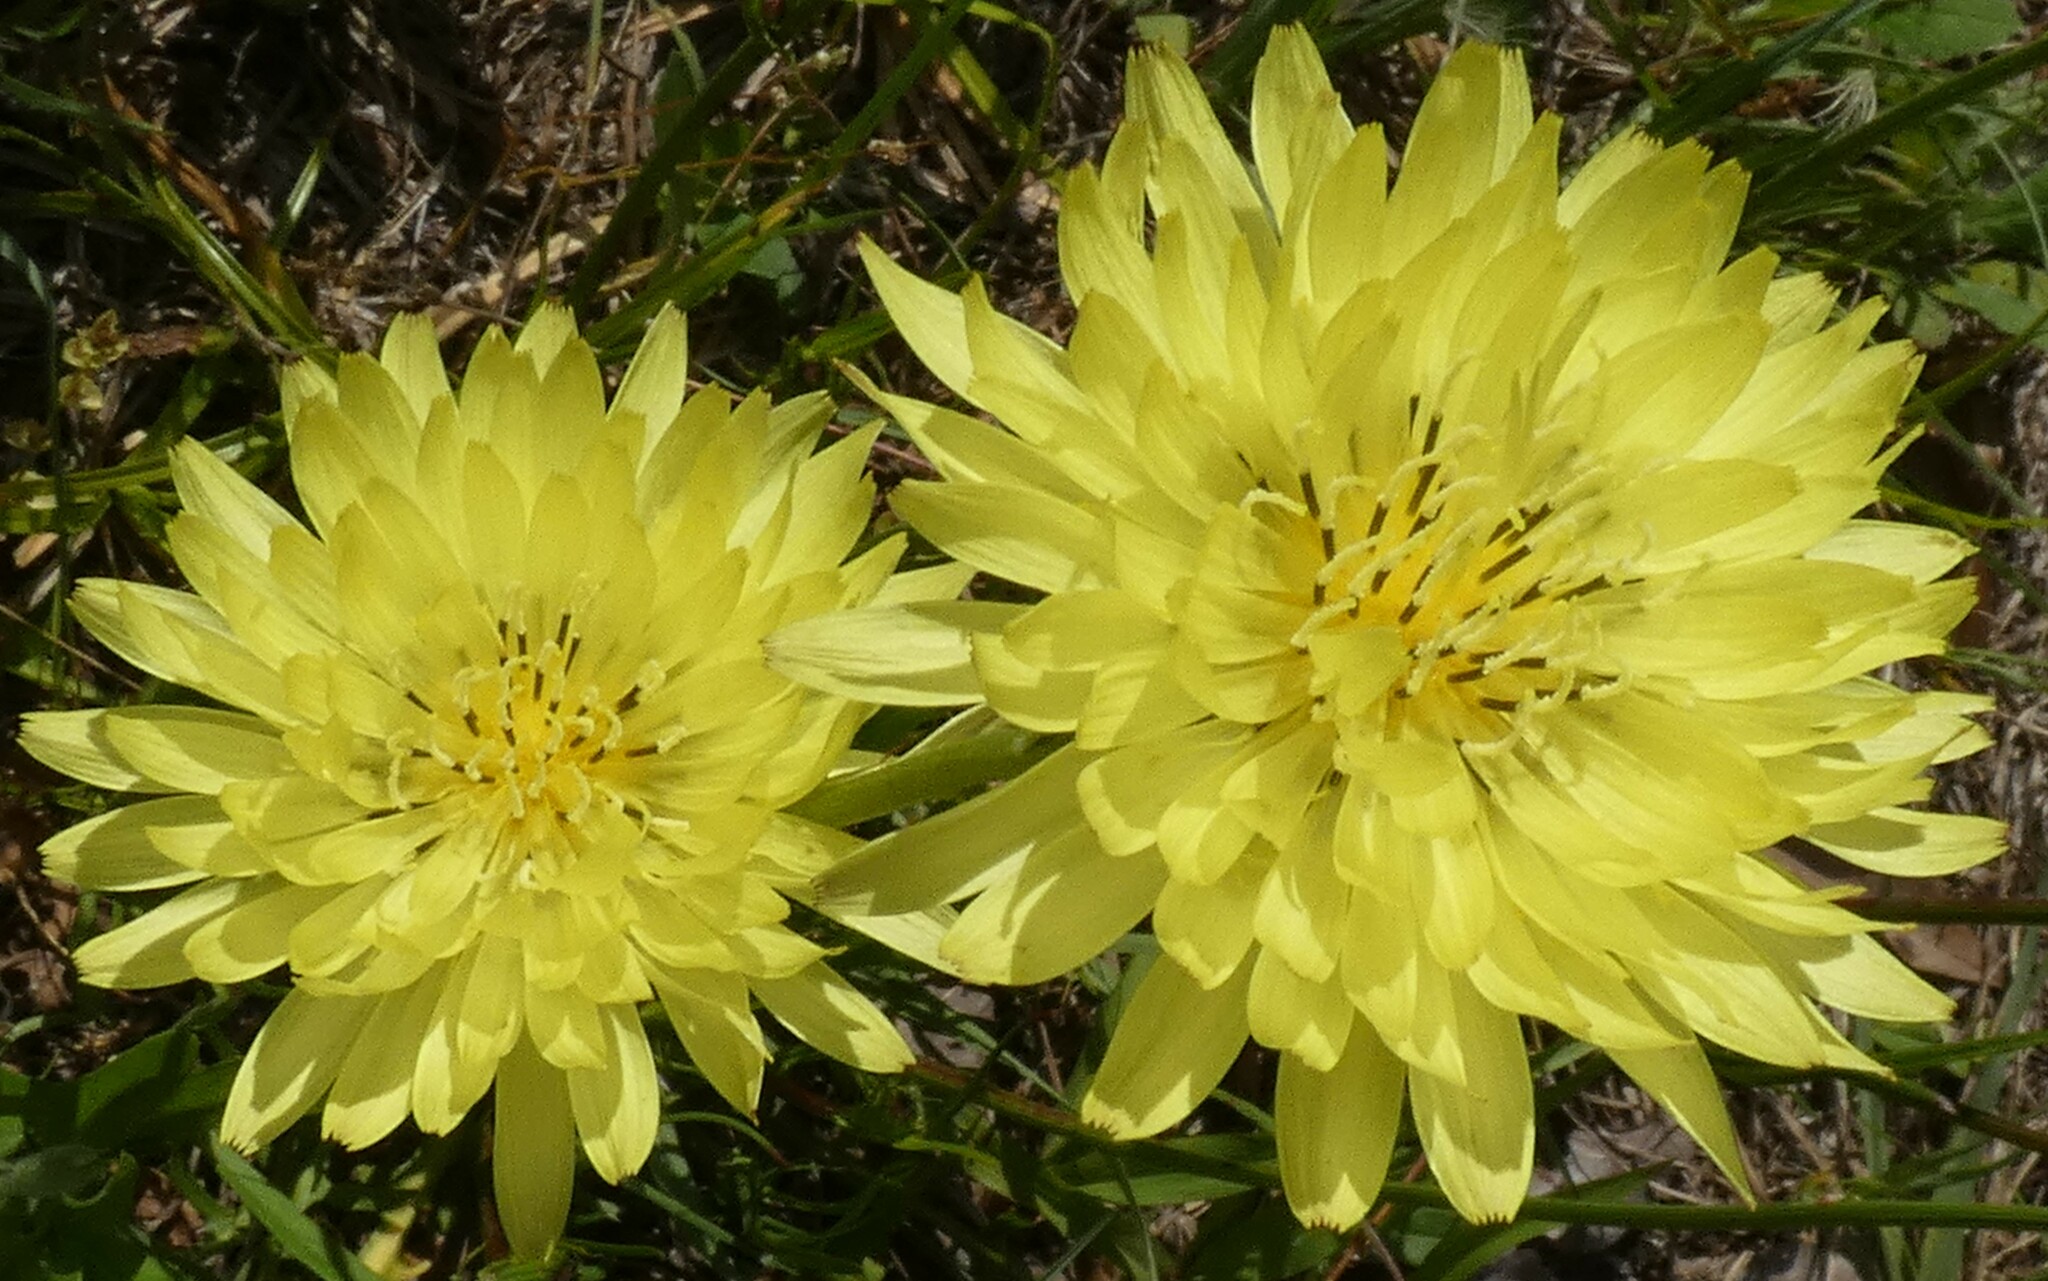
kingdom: Plantae
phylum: Tracheophyta
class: Magnoliopsida
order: Asterales
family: Asteraceae
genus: Pyrrhopappus
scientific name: Pyrrhopappus carolinianus
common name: Carolina desert-chicory
